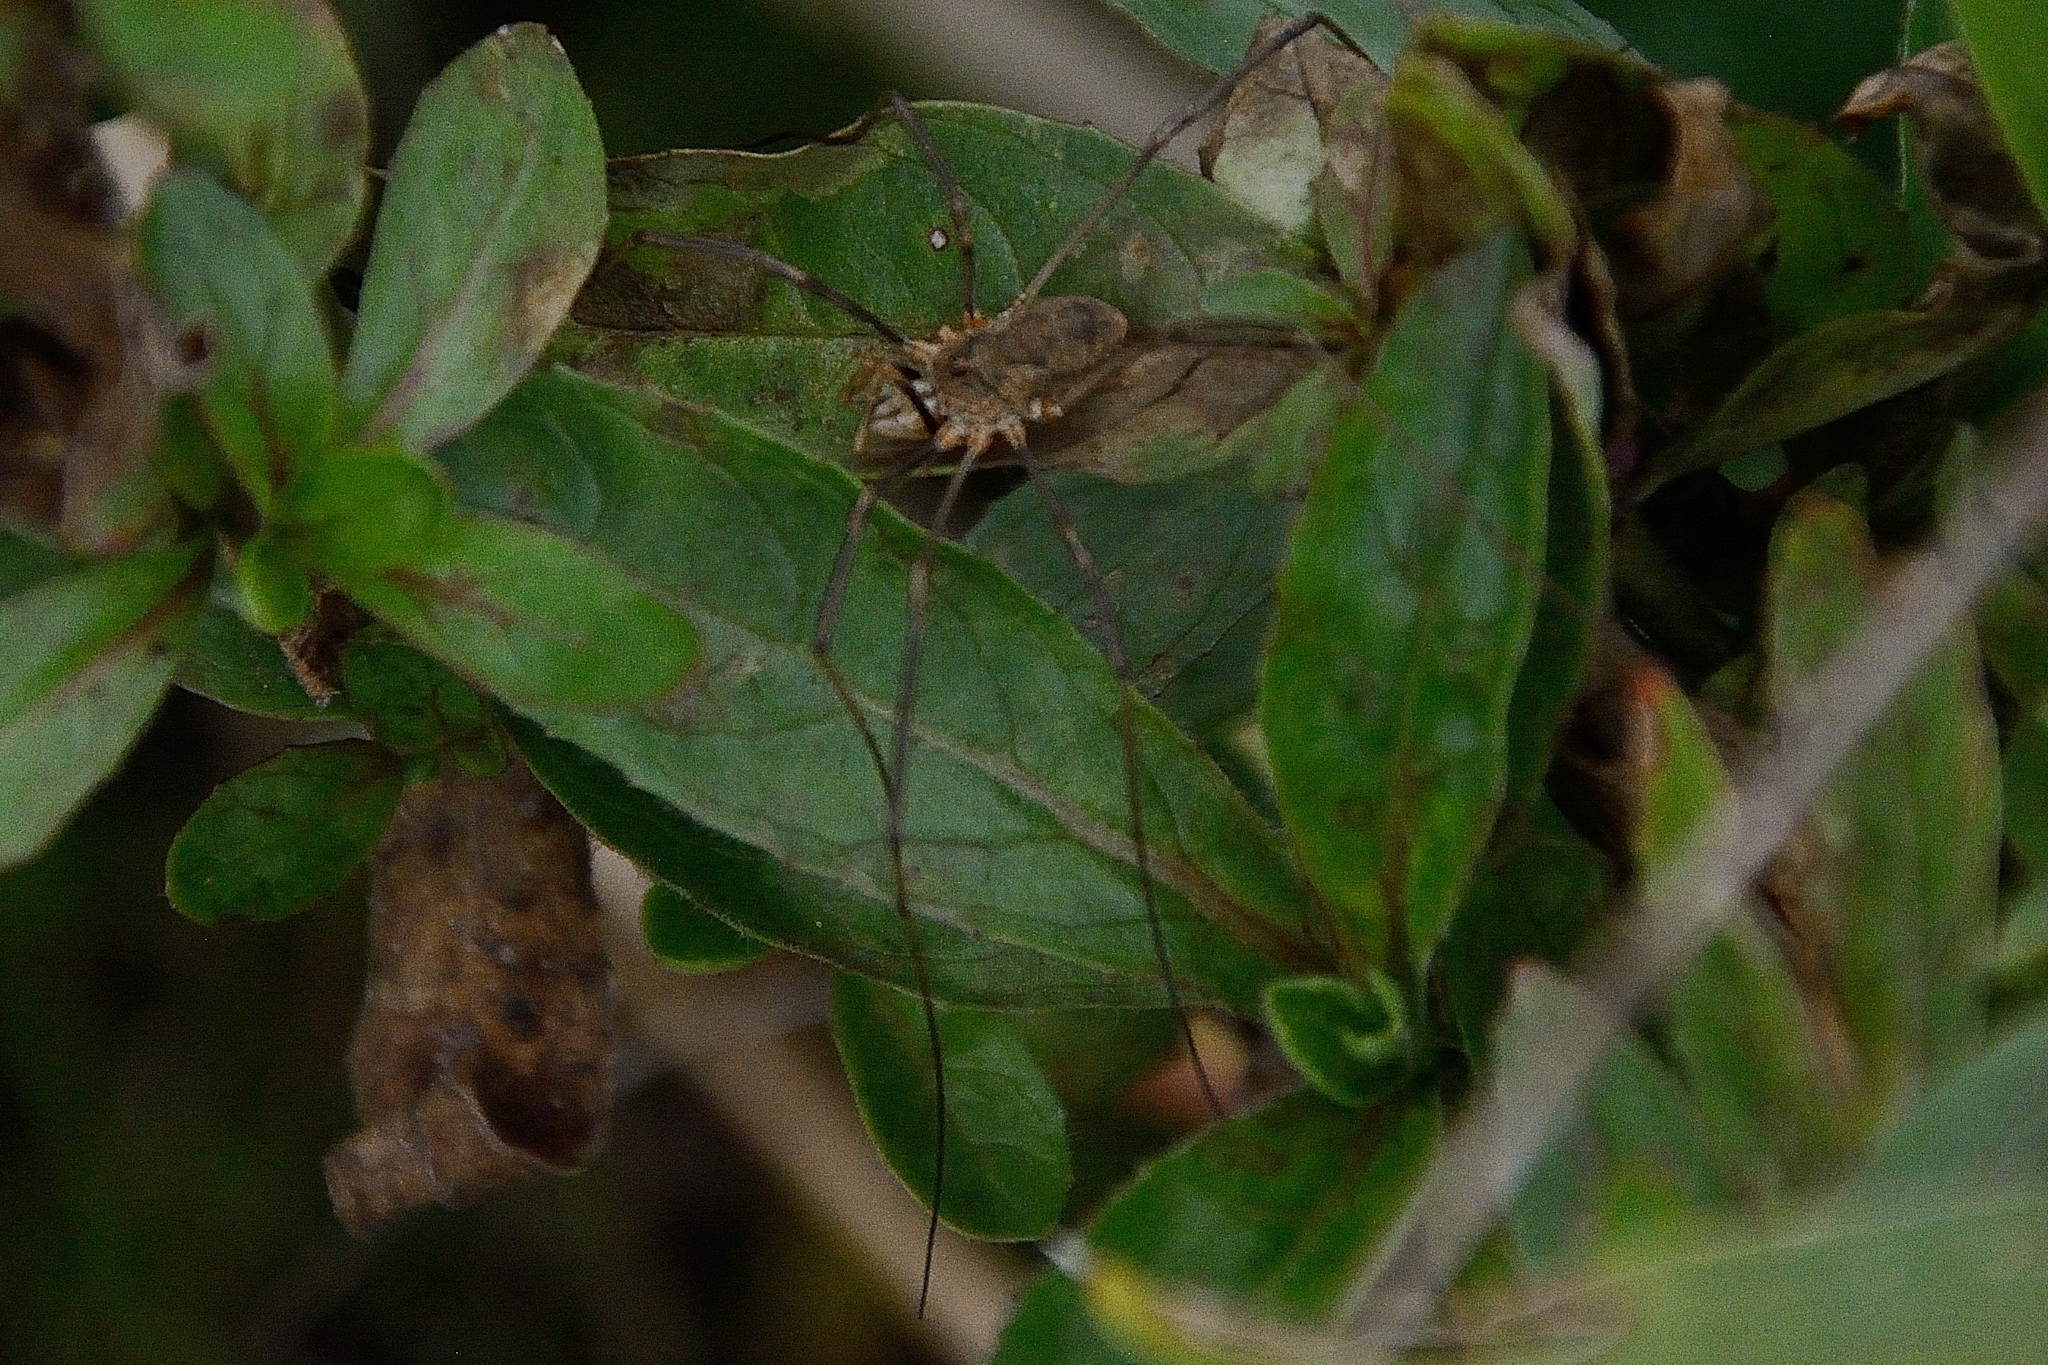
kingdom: Animalia
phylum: Arthropoda
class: Arachnida
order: Opiliones
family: Phalangiidae
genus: Phalangium
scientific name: Phalangium opilio
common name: Daddy longleg
